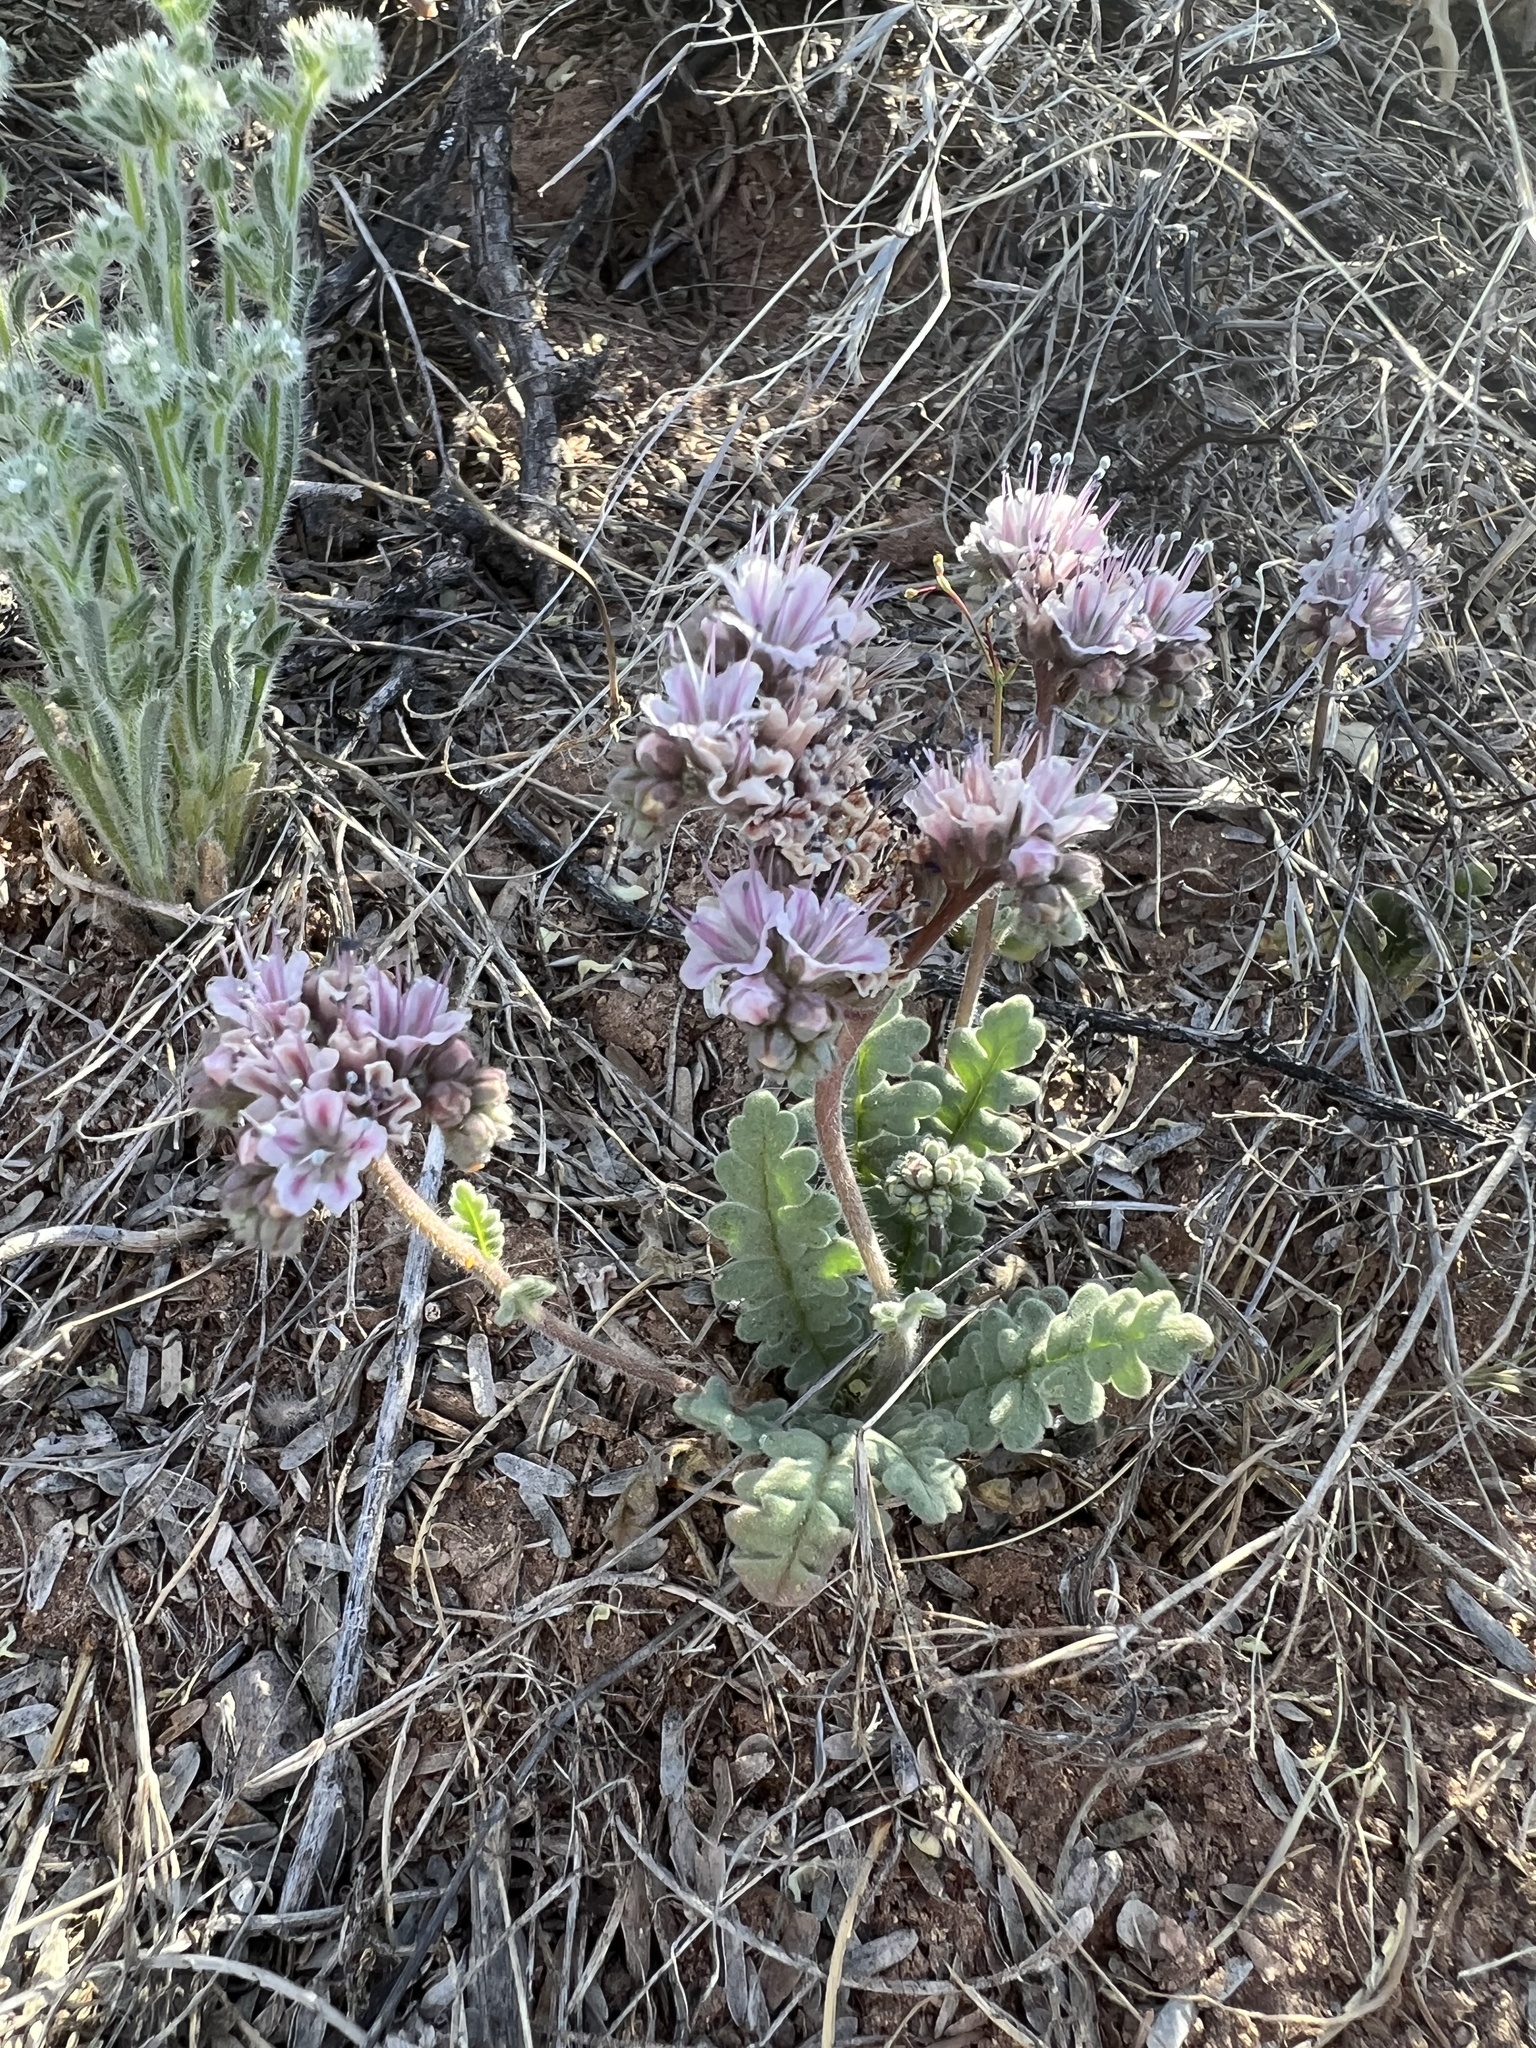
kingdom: Plantae
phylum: Tracheophyta
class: Magnoliopsida
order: Boraginales
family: Hydrophyllaceae
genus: Phacelia
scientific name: Phacelia arizonica
